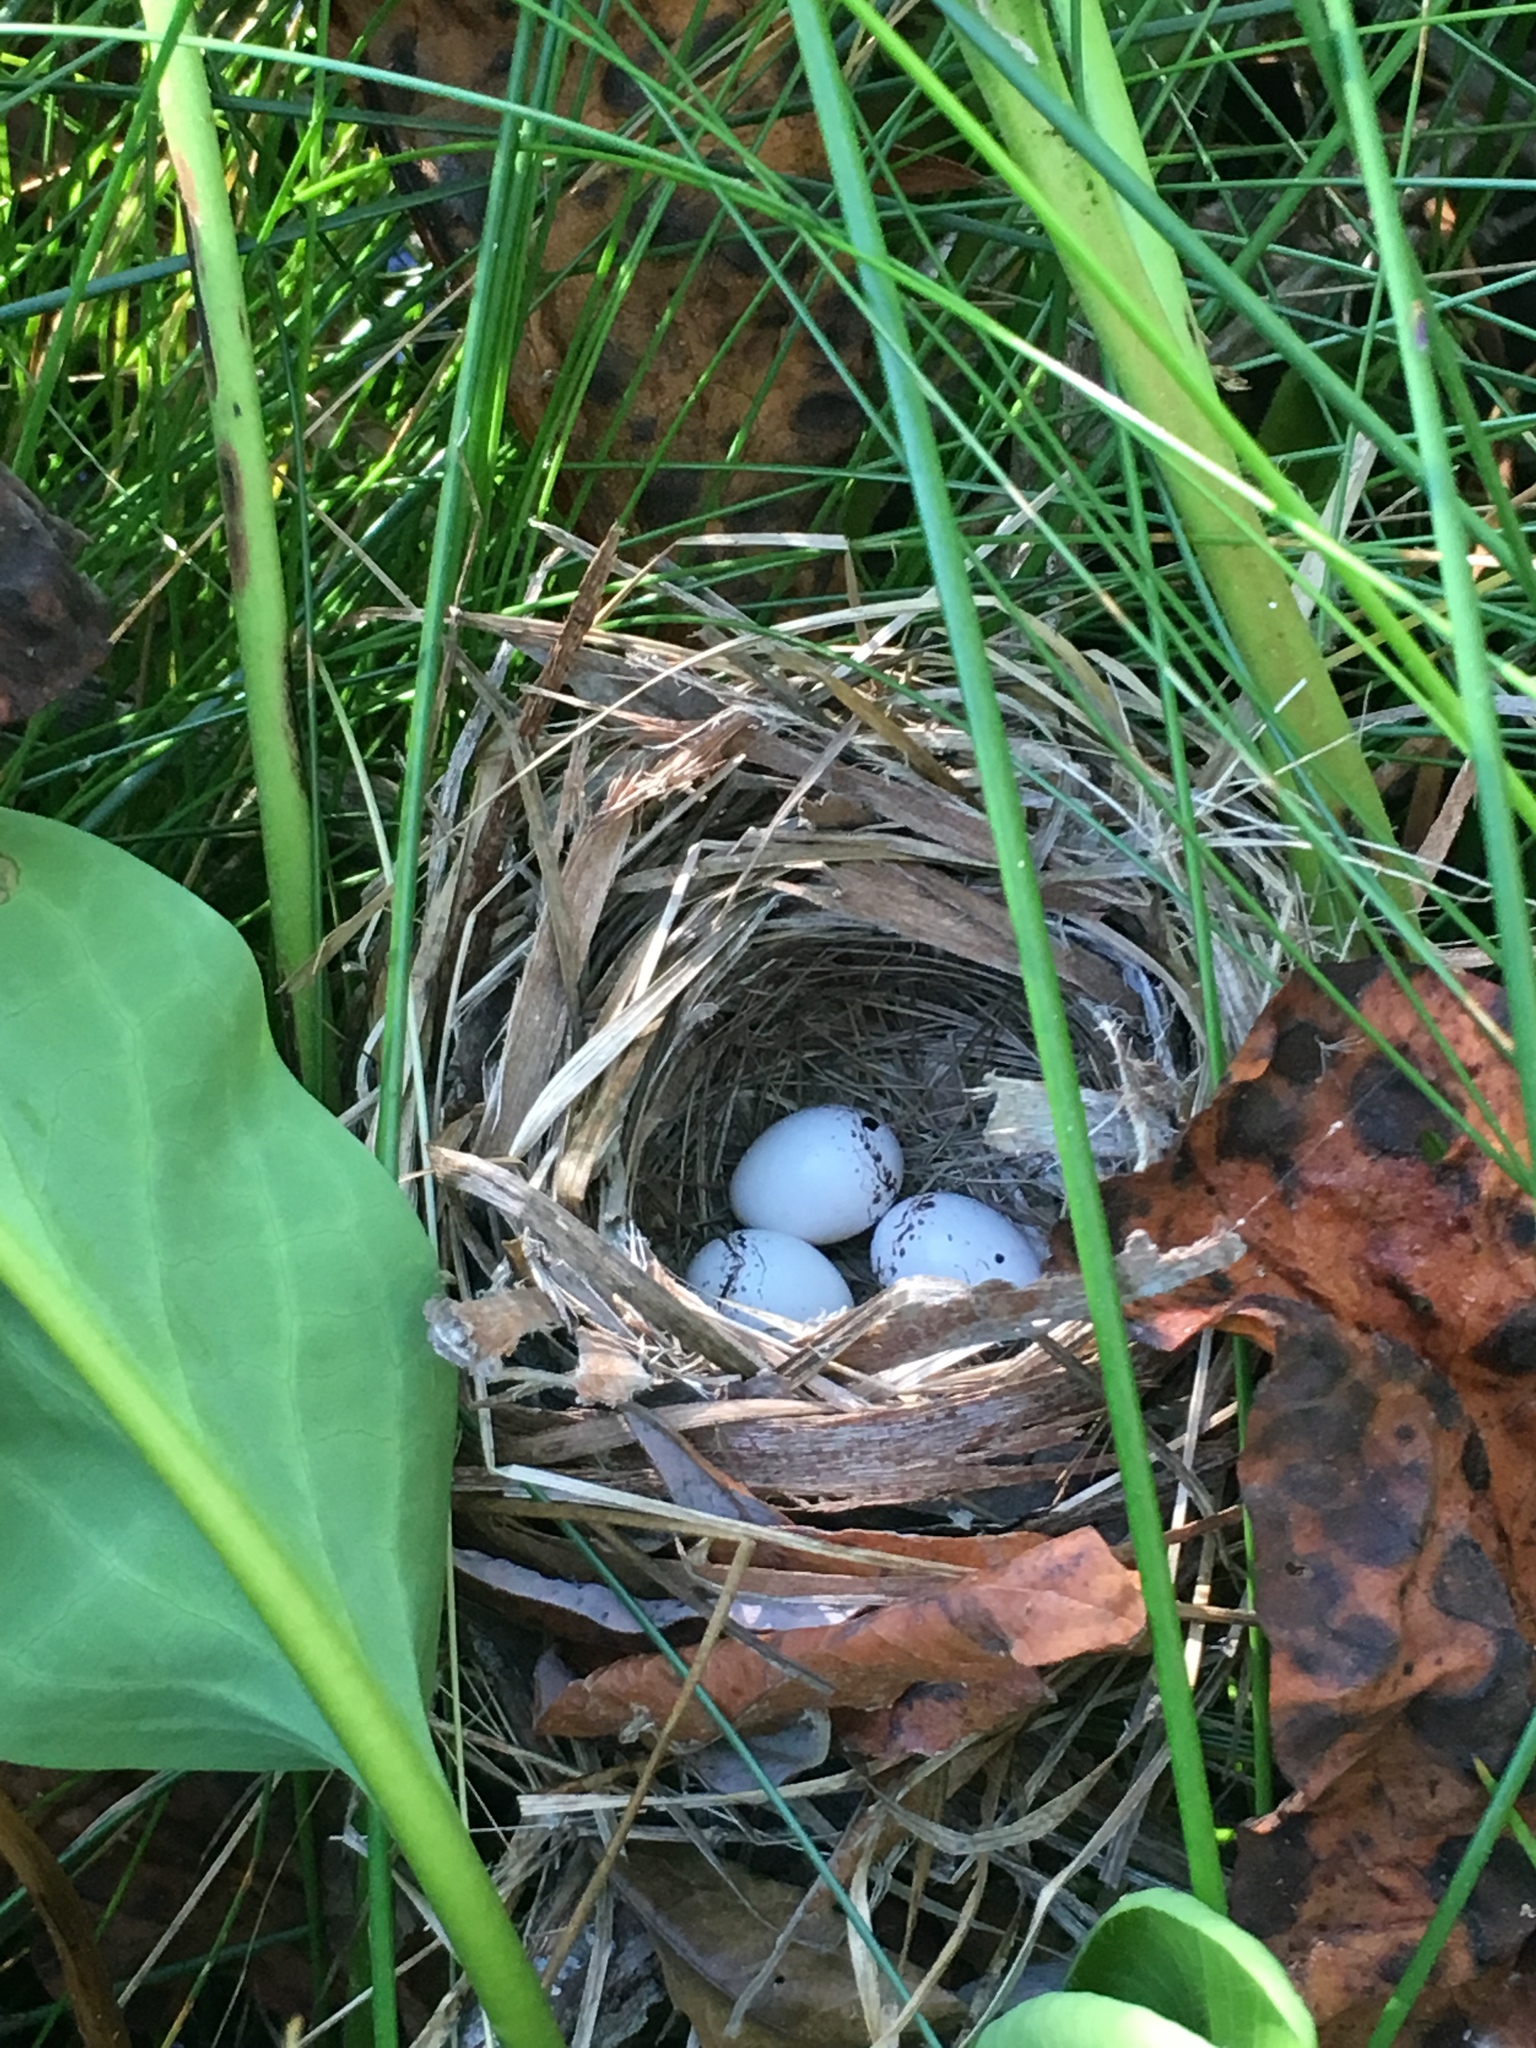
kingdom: Animalia
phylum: Chordata
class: Aves
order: Passeriformes
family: Parulidae
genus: Geothlypis
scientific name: Geothlypis trichas
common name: Common yellowthroat
